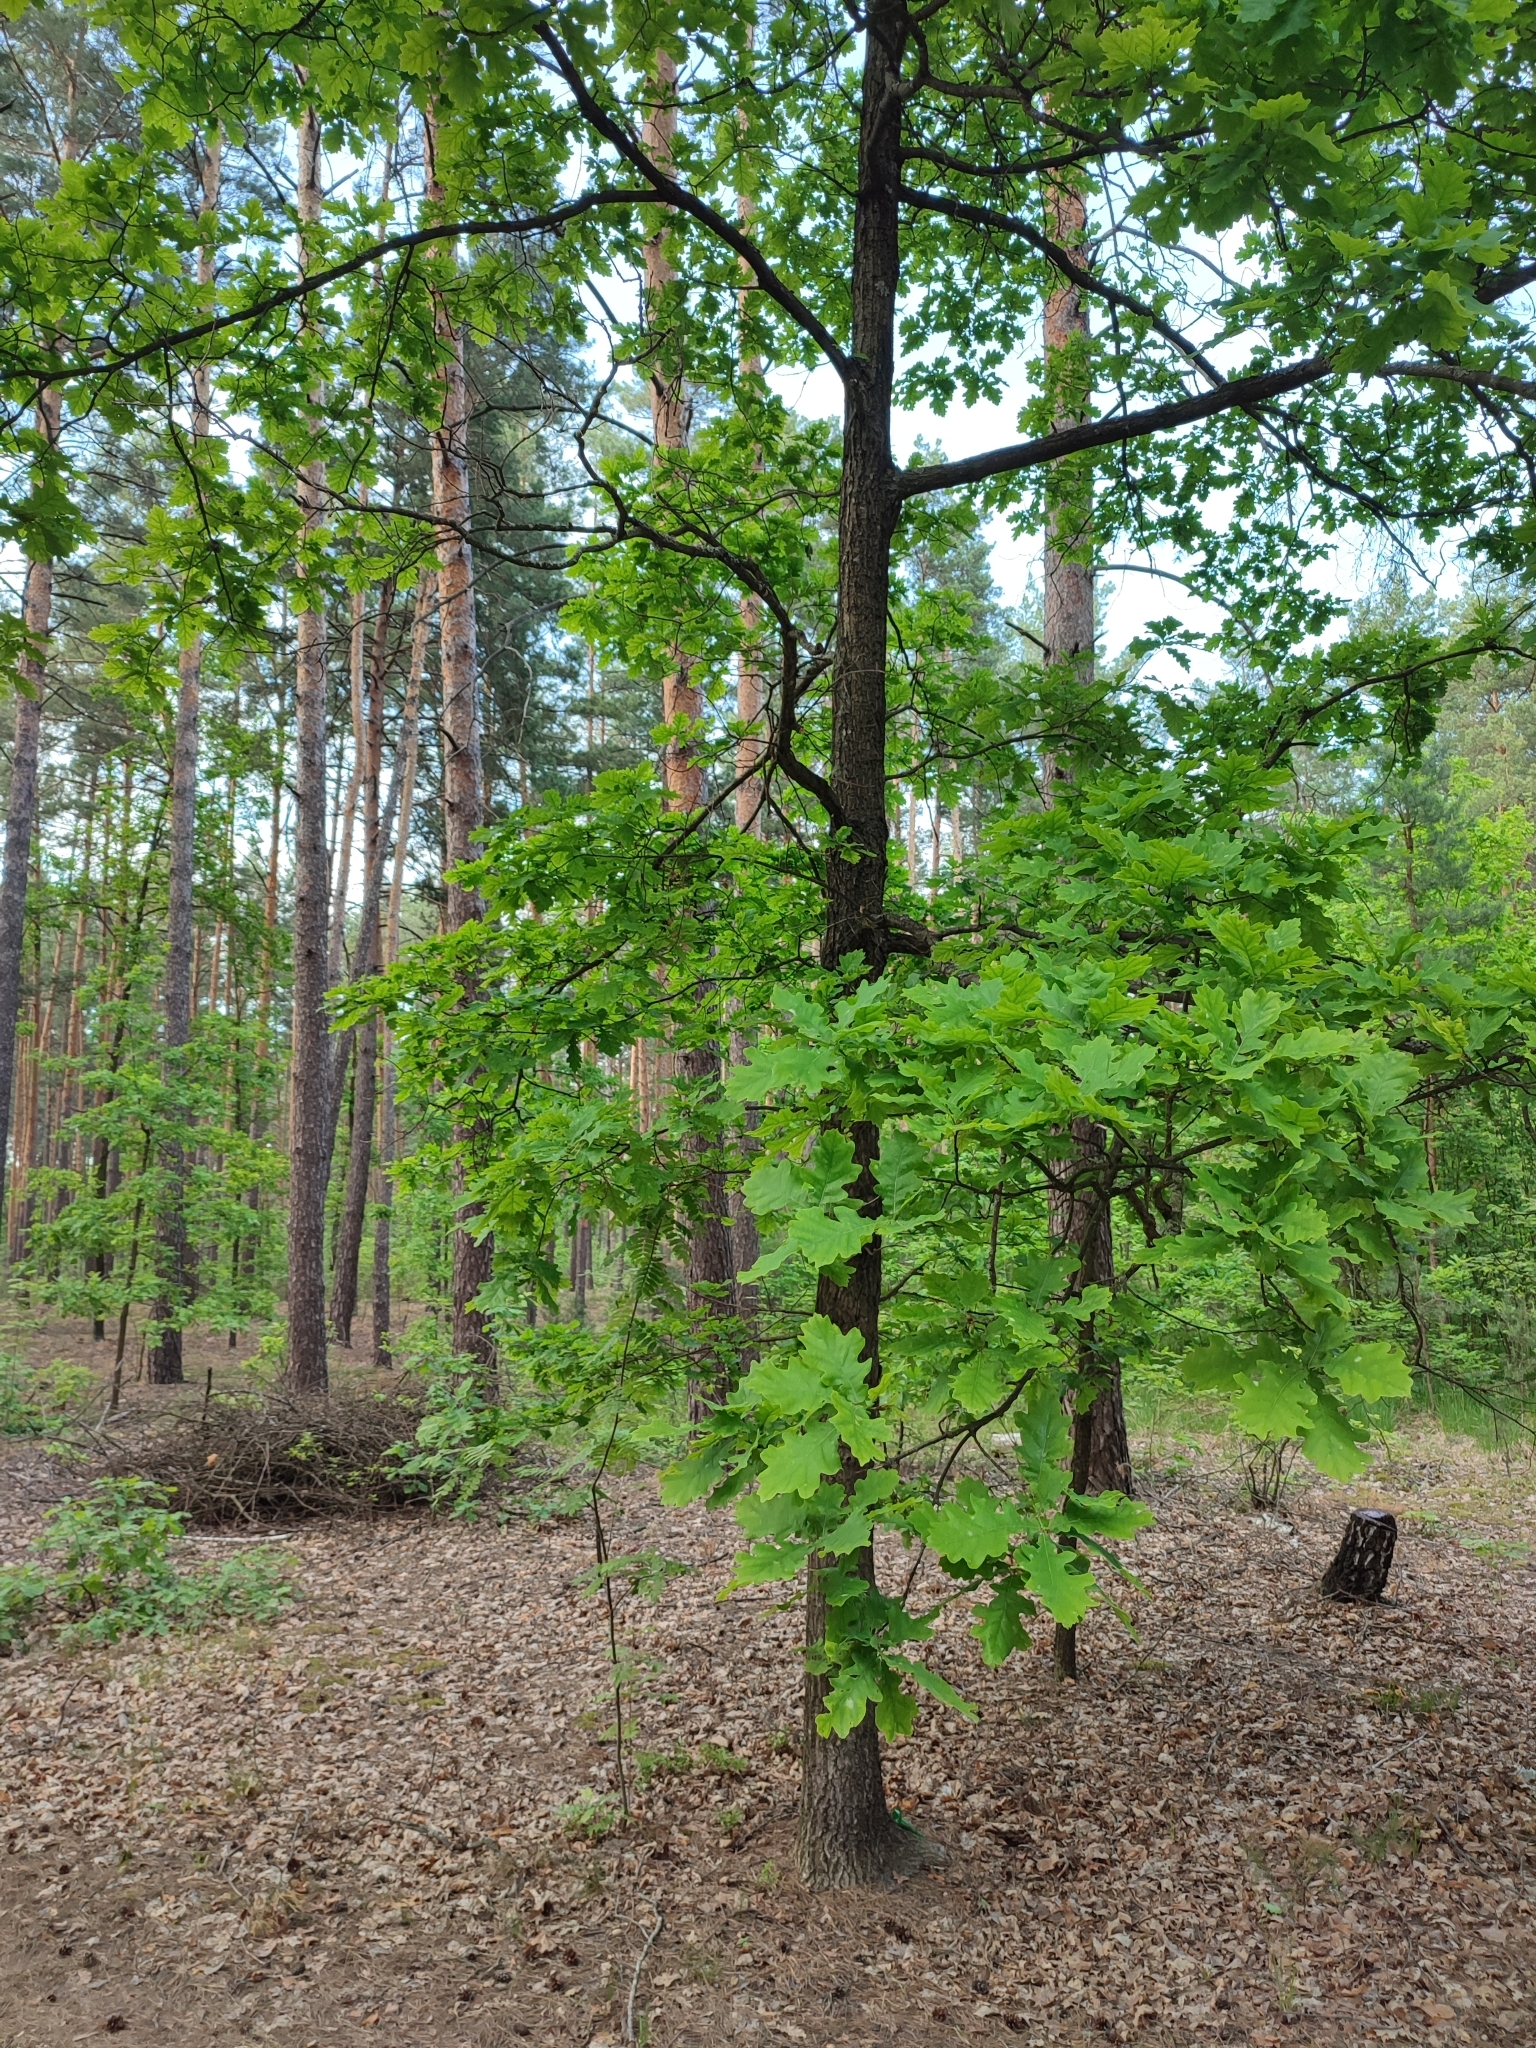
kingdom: Plantae
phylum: Tracheophyta
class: Magnoliopsida
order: Fagales
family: Fagaceae
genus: Quercus
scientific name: Quercus robur
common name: Pedunculate oak
